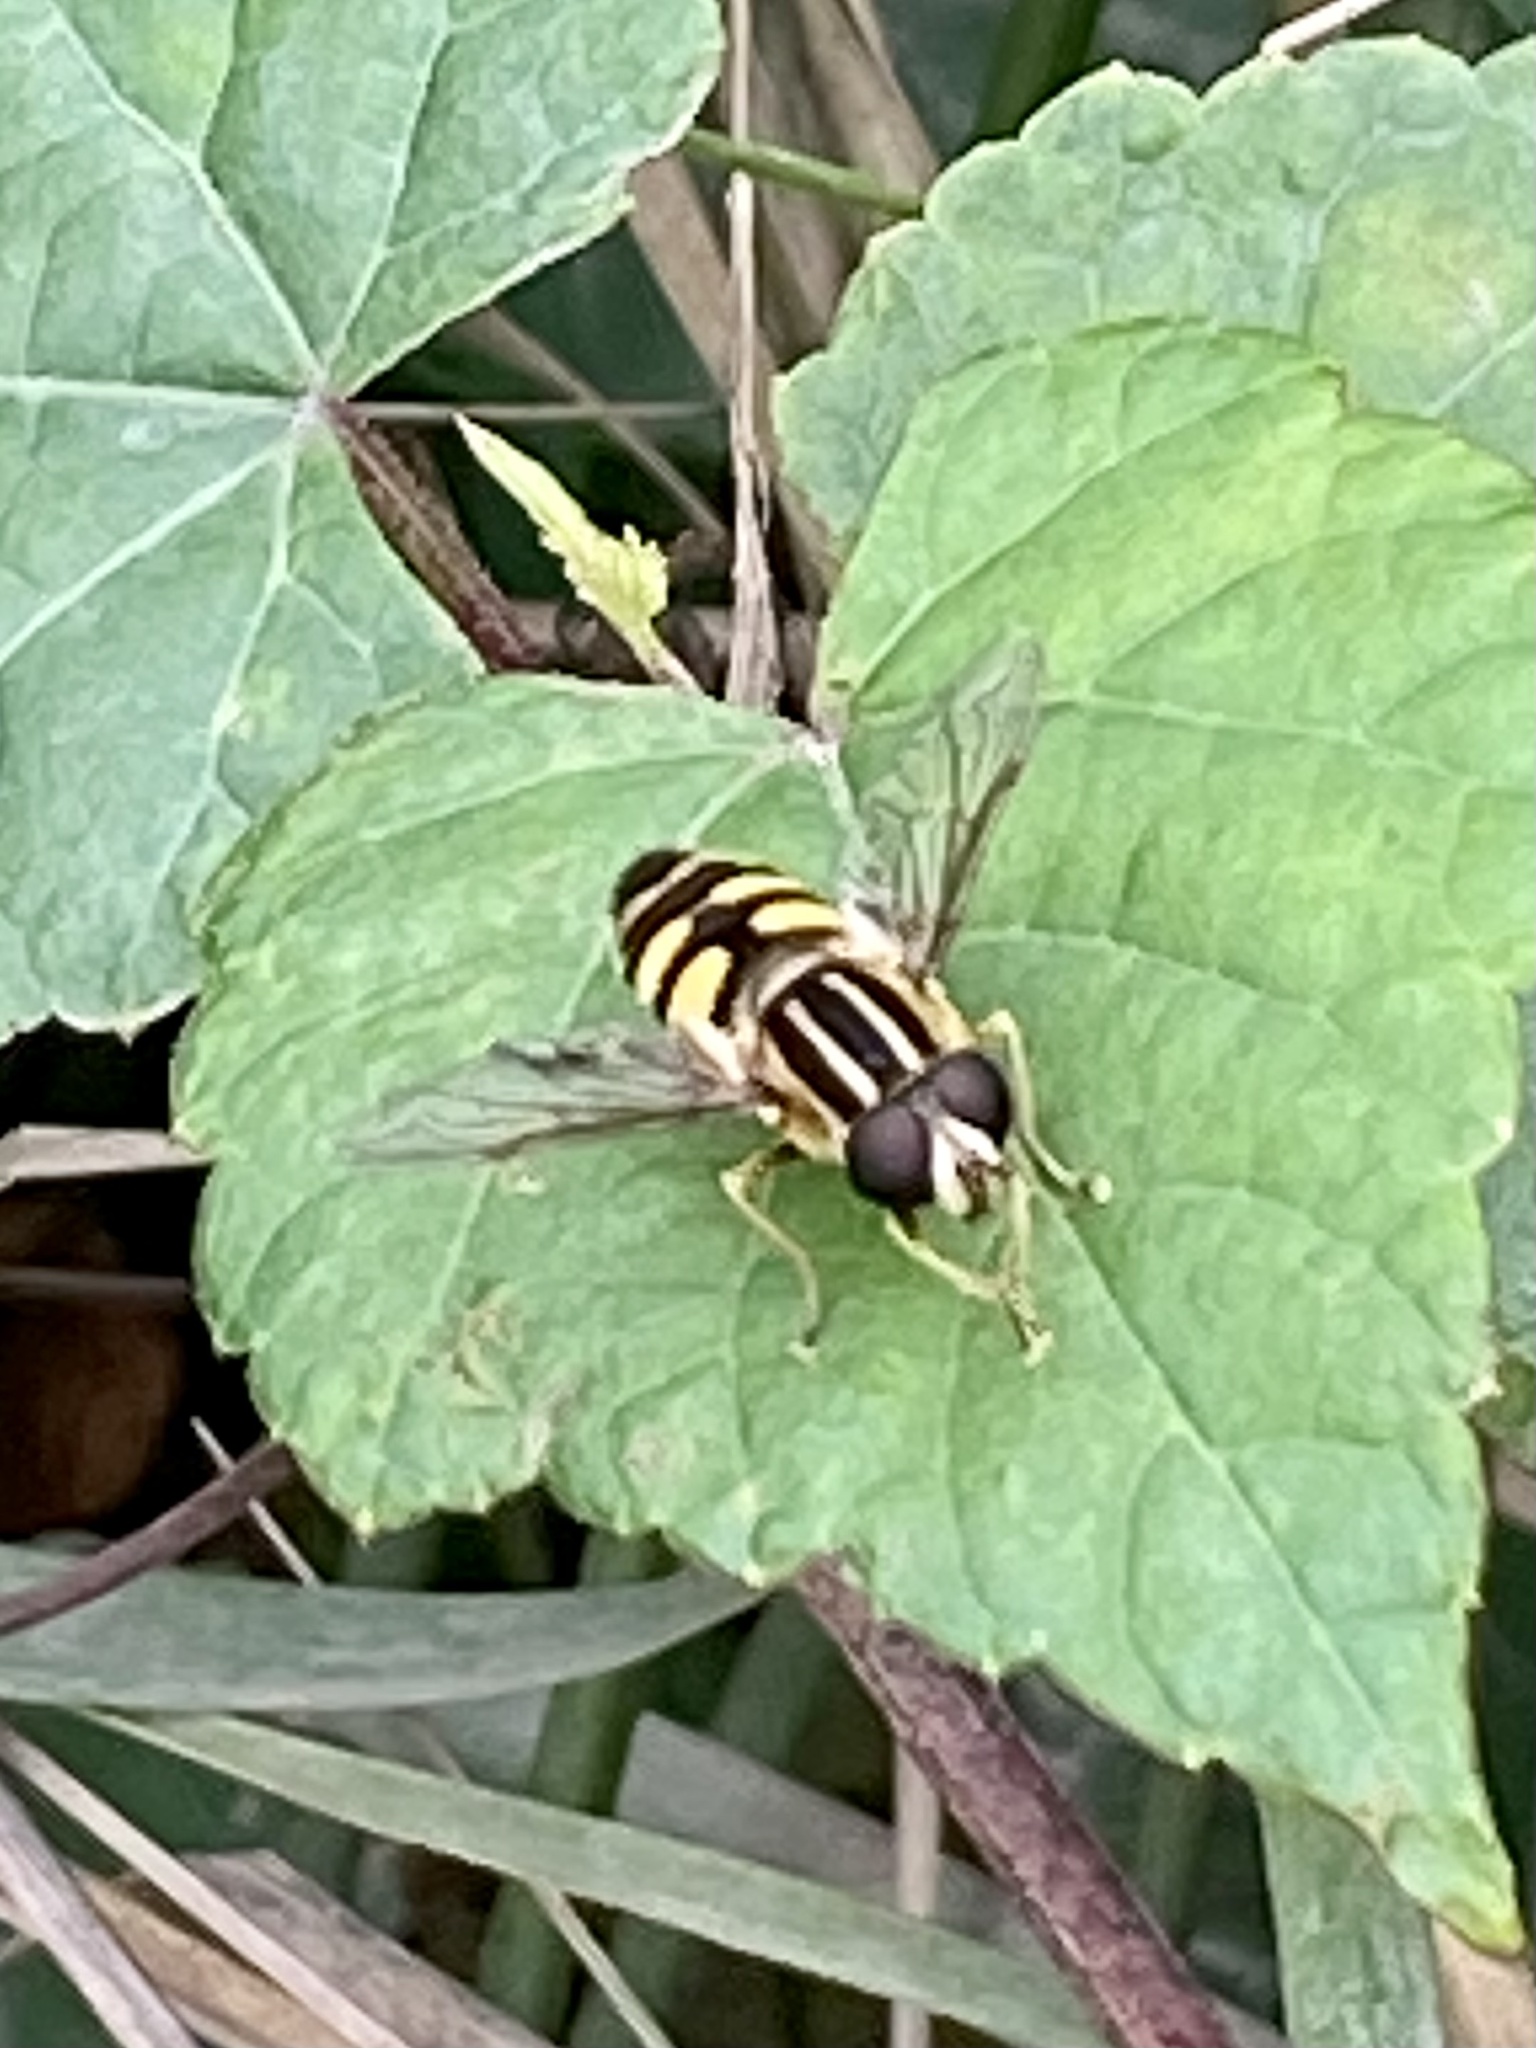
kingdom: Animalia
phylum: Arthropoda
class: Insecta
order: Diptera
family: Syrphidae
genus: Helophilus
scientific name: Helophilus fasciatus
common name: Narrow-headed marsh fly
